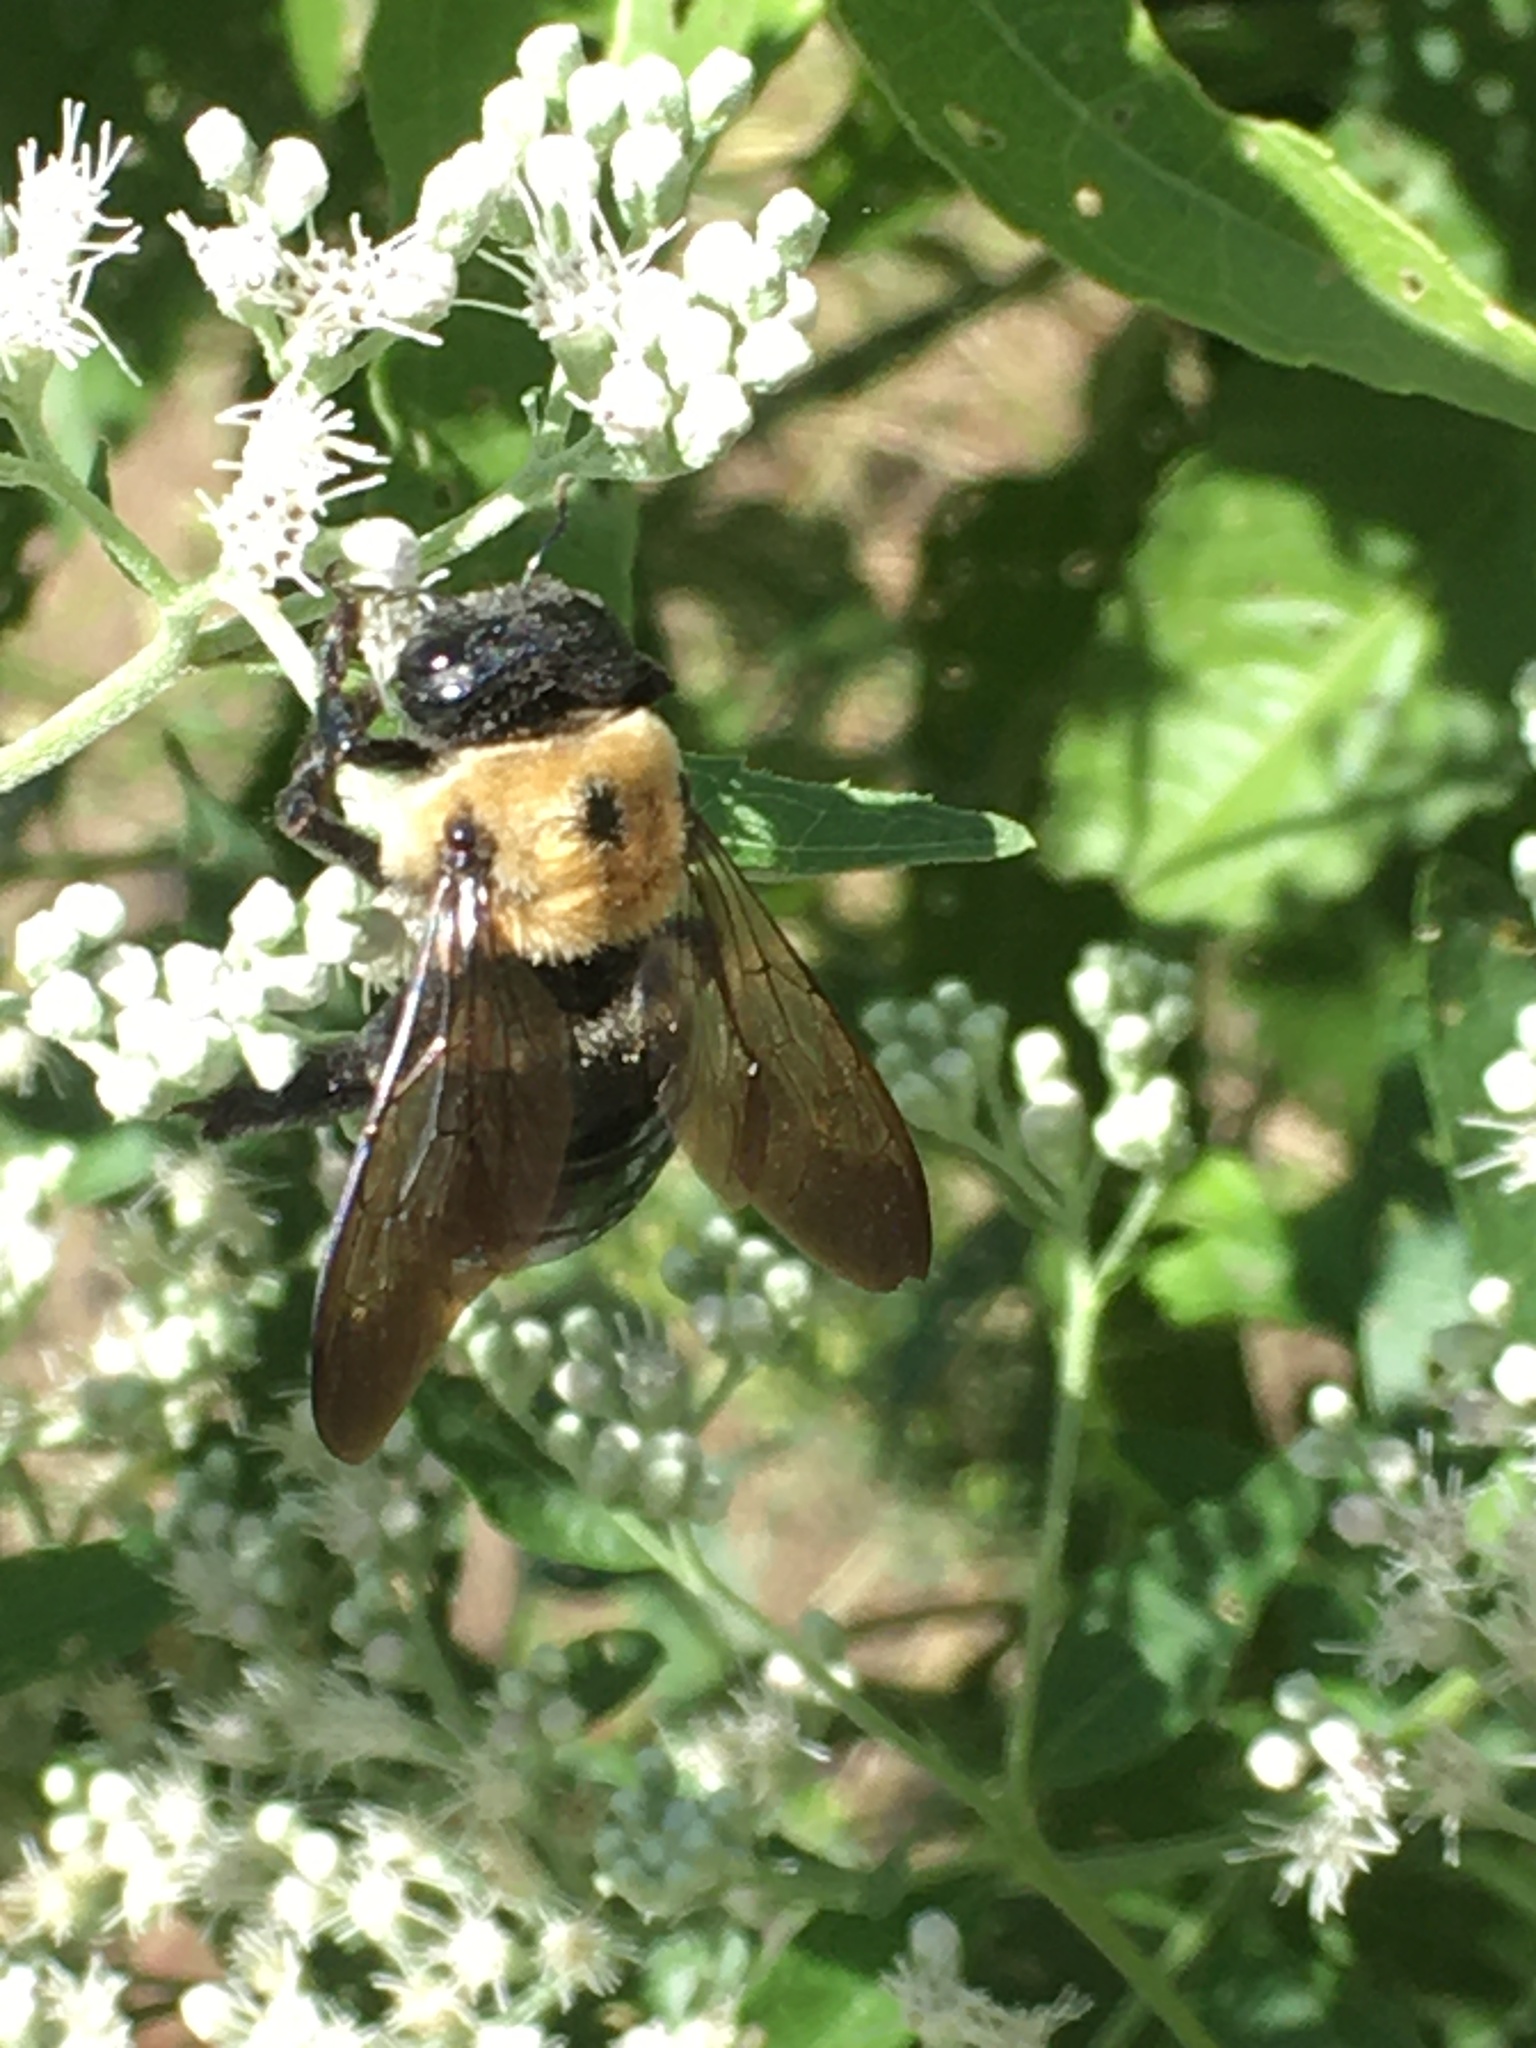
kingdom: Animalia
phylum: Arthropoda
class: Insecta
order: Hymenoptera
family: Apidae
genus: Xylocopa
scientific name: Xylocopa virginica
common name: Carpenter bee
